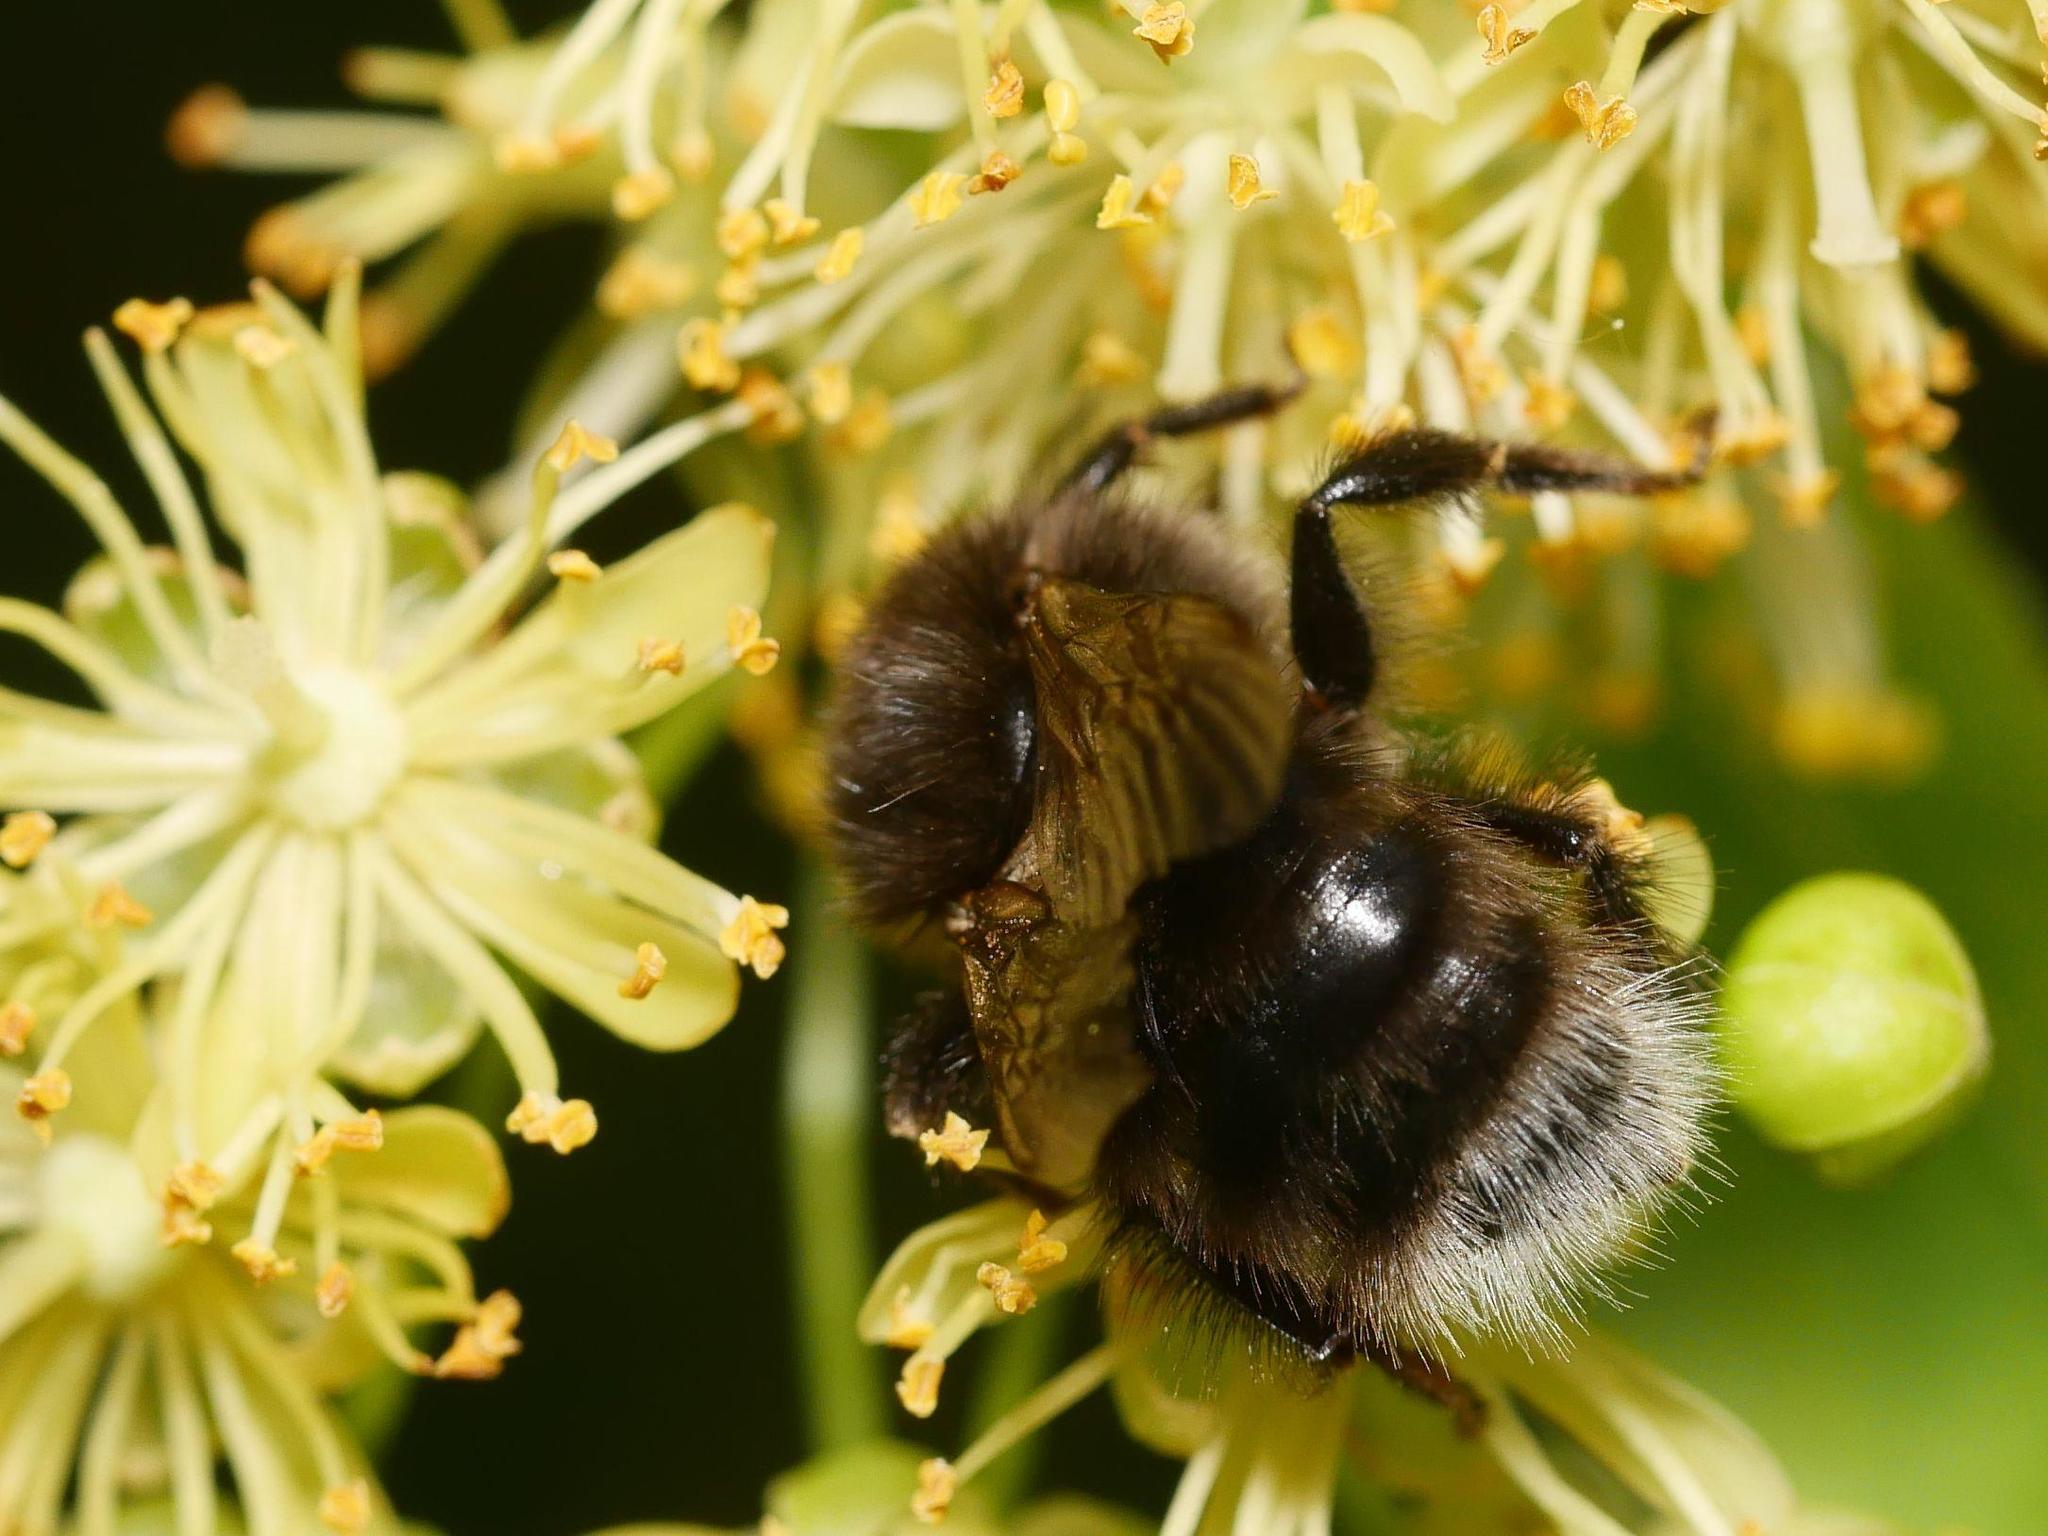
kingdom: Animalia
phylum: Arthropoda
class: Insecta
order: Hymenoptera
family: Apidae
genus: Bombus
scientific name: Bombus hypnorum
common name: New garden bumblebee
